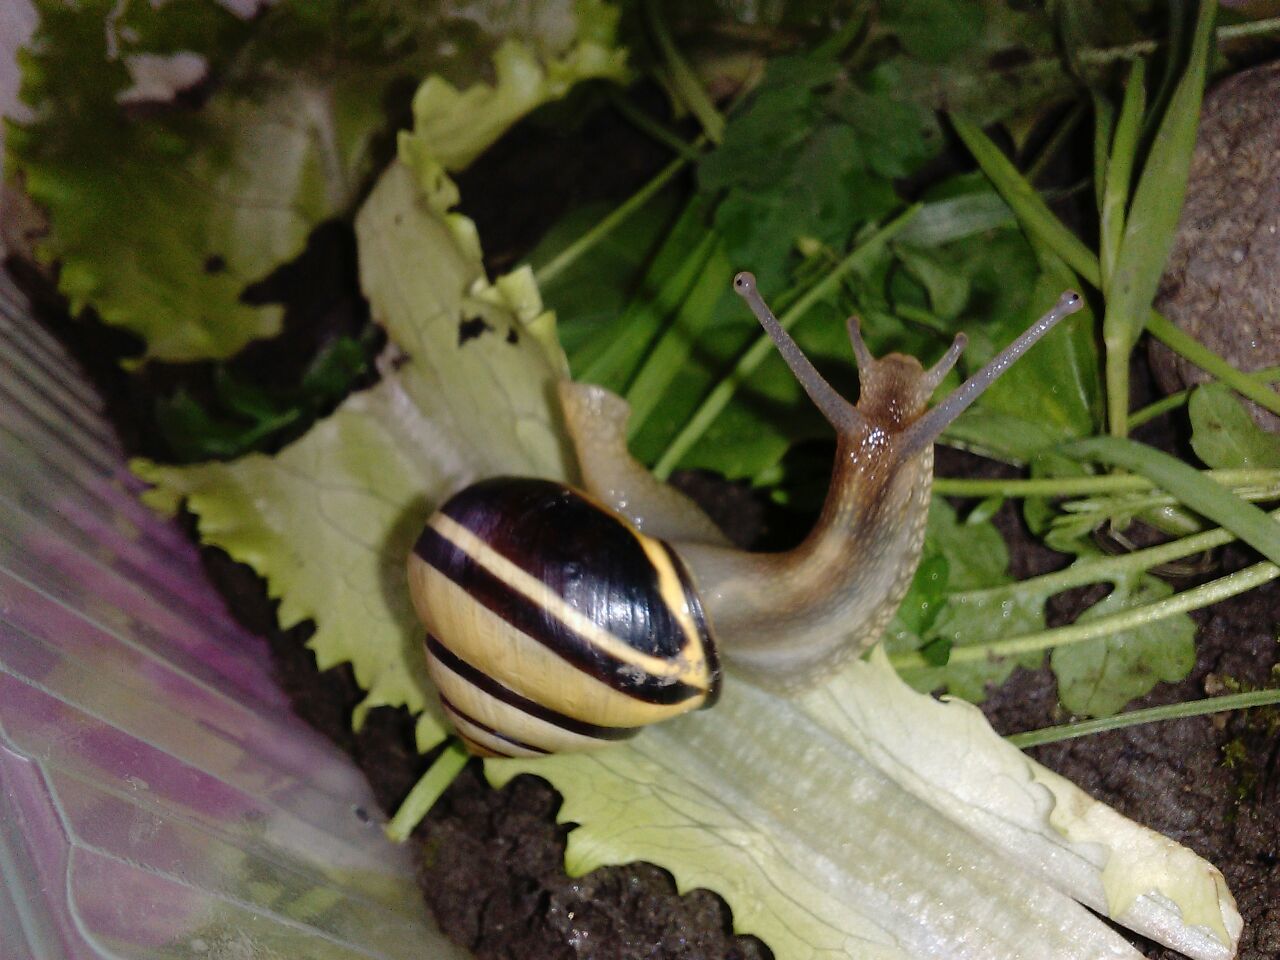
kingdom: Animalia
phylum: Mollusca
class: Gastropoda
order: Stylommatophora
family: Helicidae
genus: Cepaea
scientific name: Cepaea nemoralis
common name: Grovesnail
